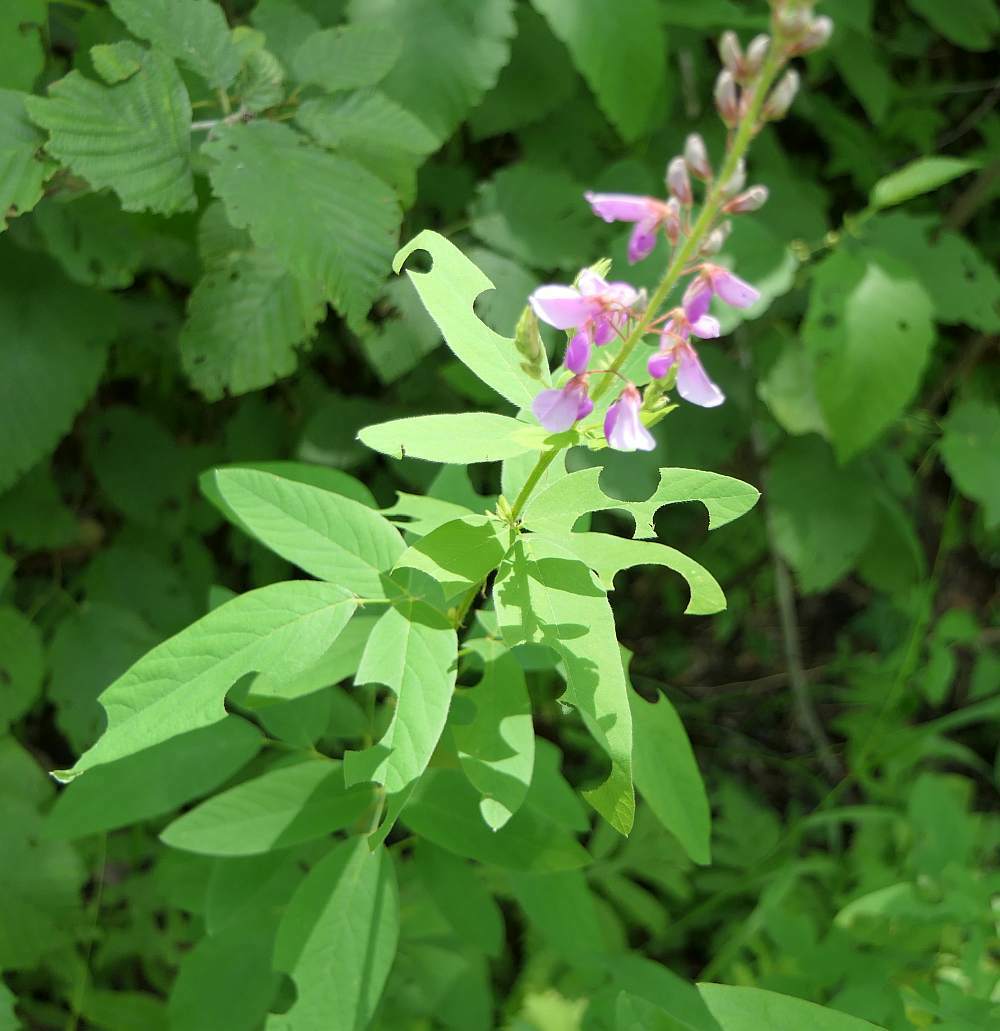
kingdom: Plantae
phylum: Tracheophyta
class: Magnoliopsida
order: Fabales
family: Fabaceae
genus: Desmodium
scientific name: Desmodium canadense
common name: Canada tick-trefoil
